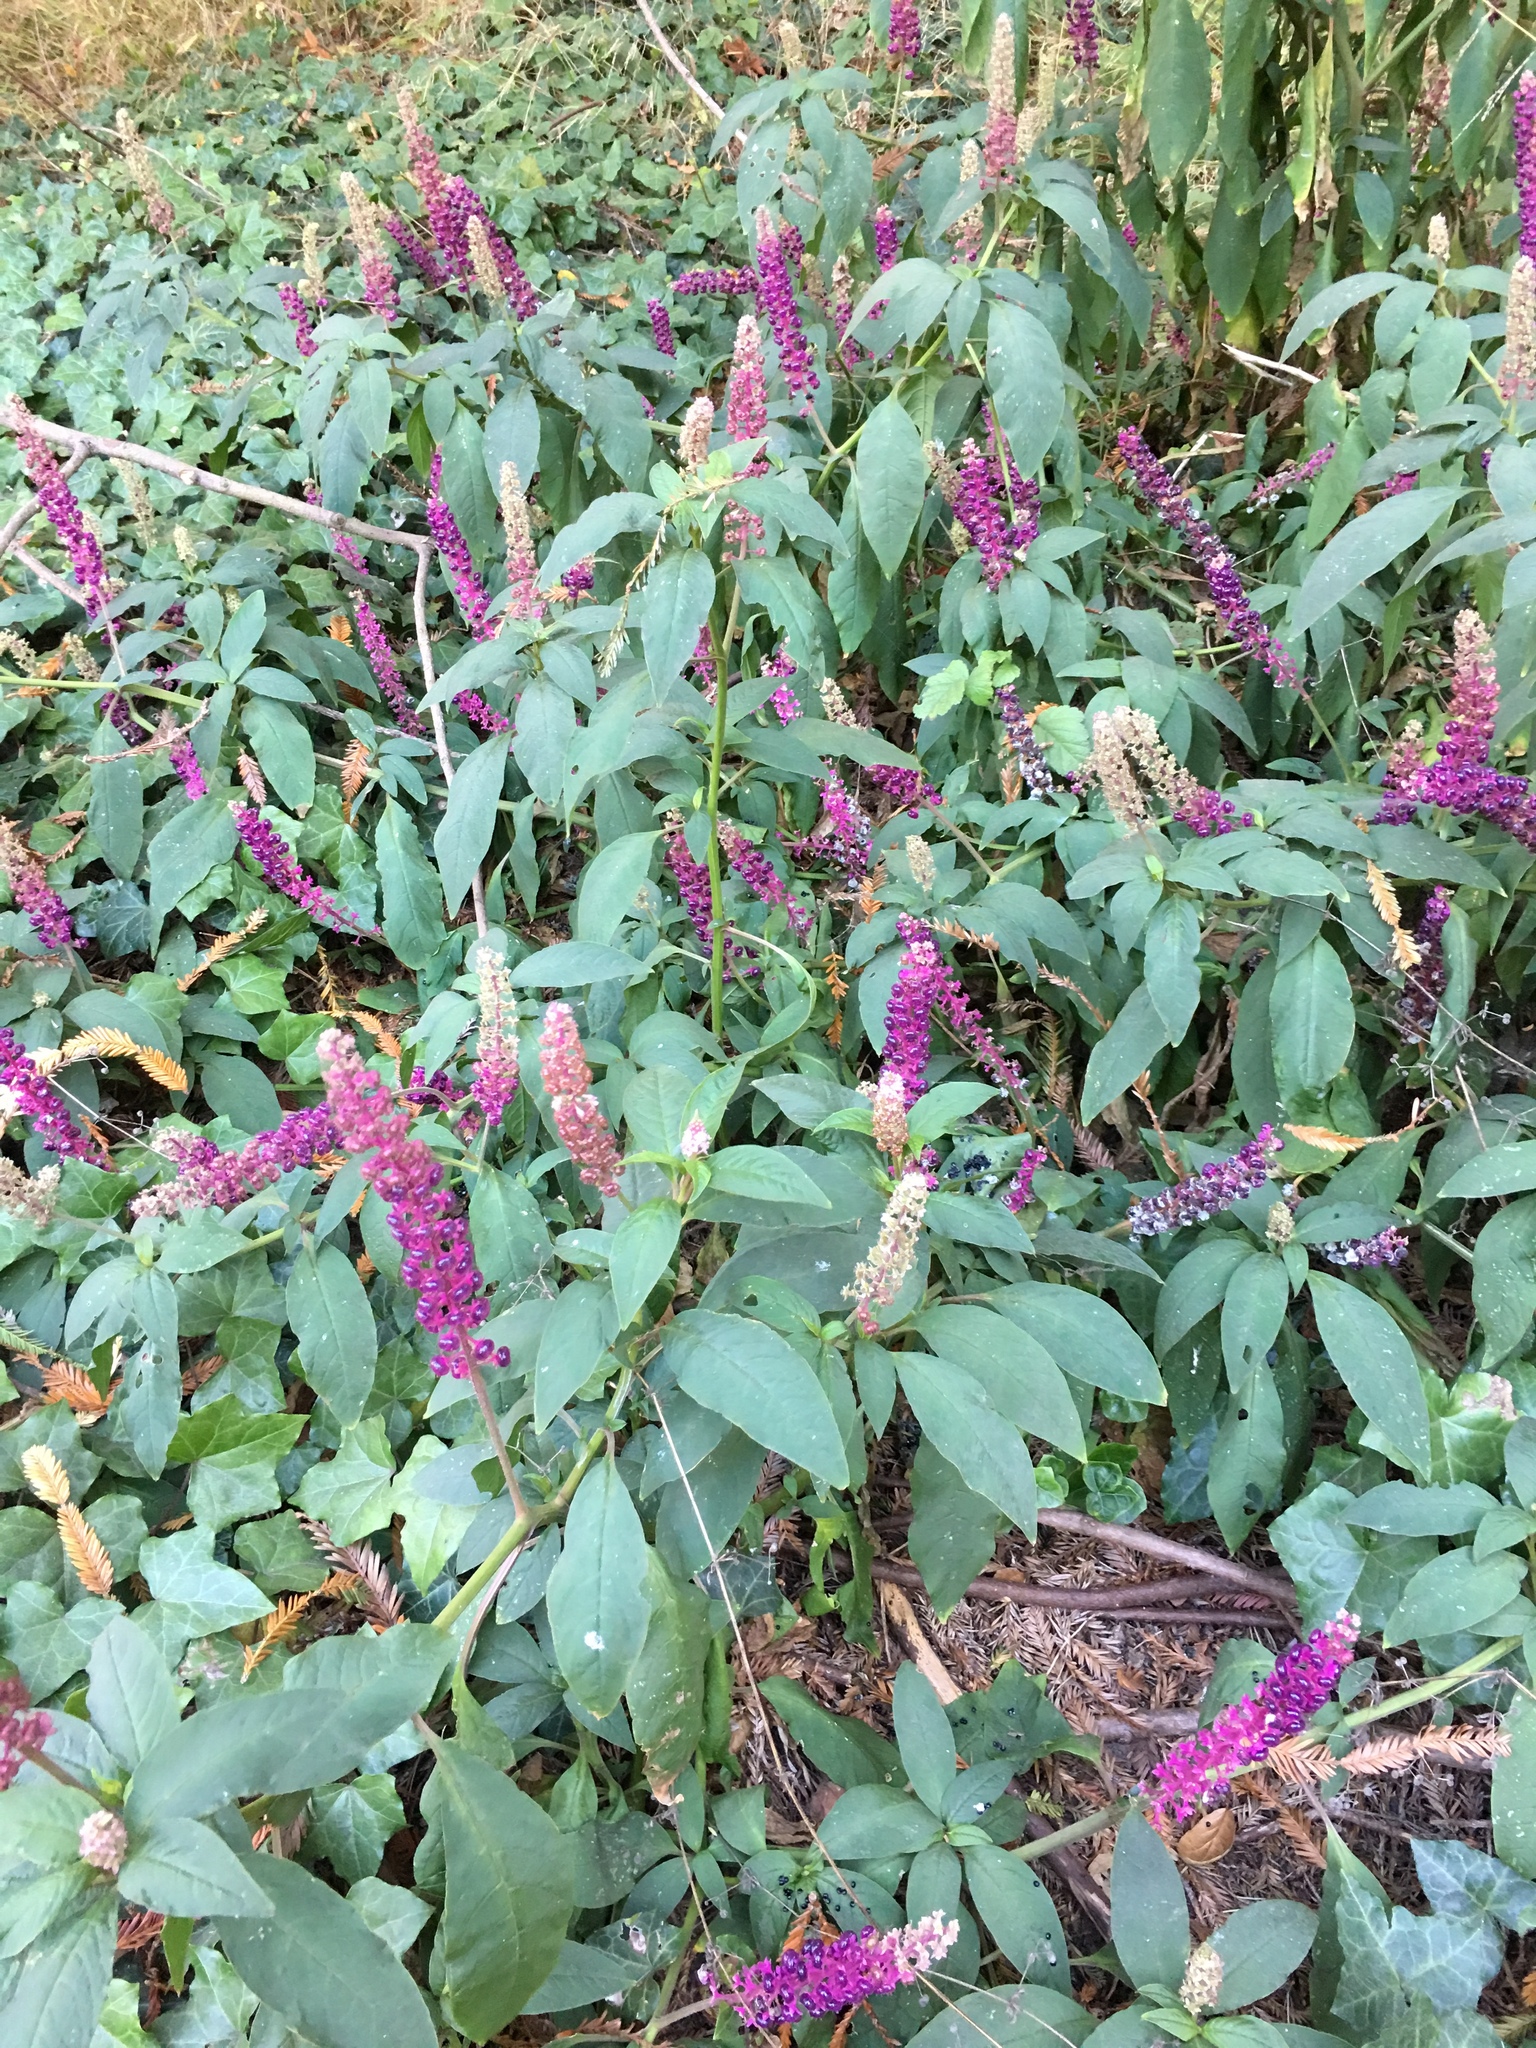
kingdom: Plantae
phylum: Tracheophyta
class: Magnoliopsida
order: Caryophyllales
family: Phytolaccaceae
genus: Phytolacca
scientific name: Phytolacca americana
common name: American pokeweed
